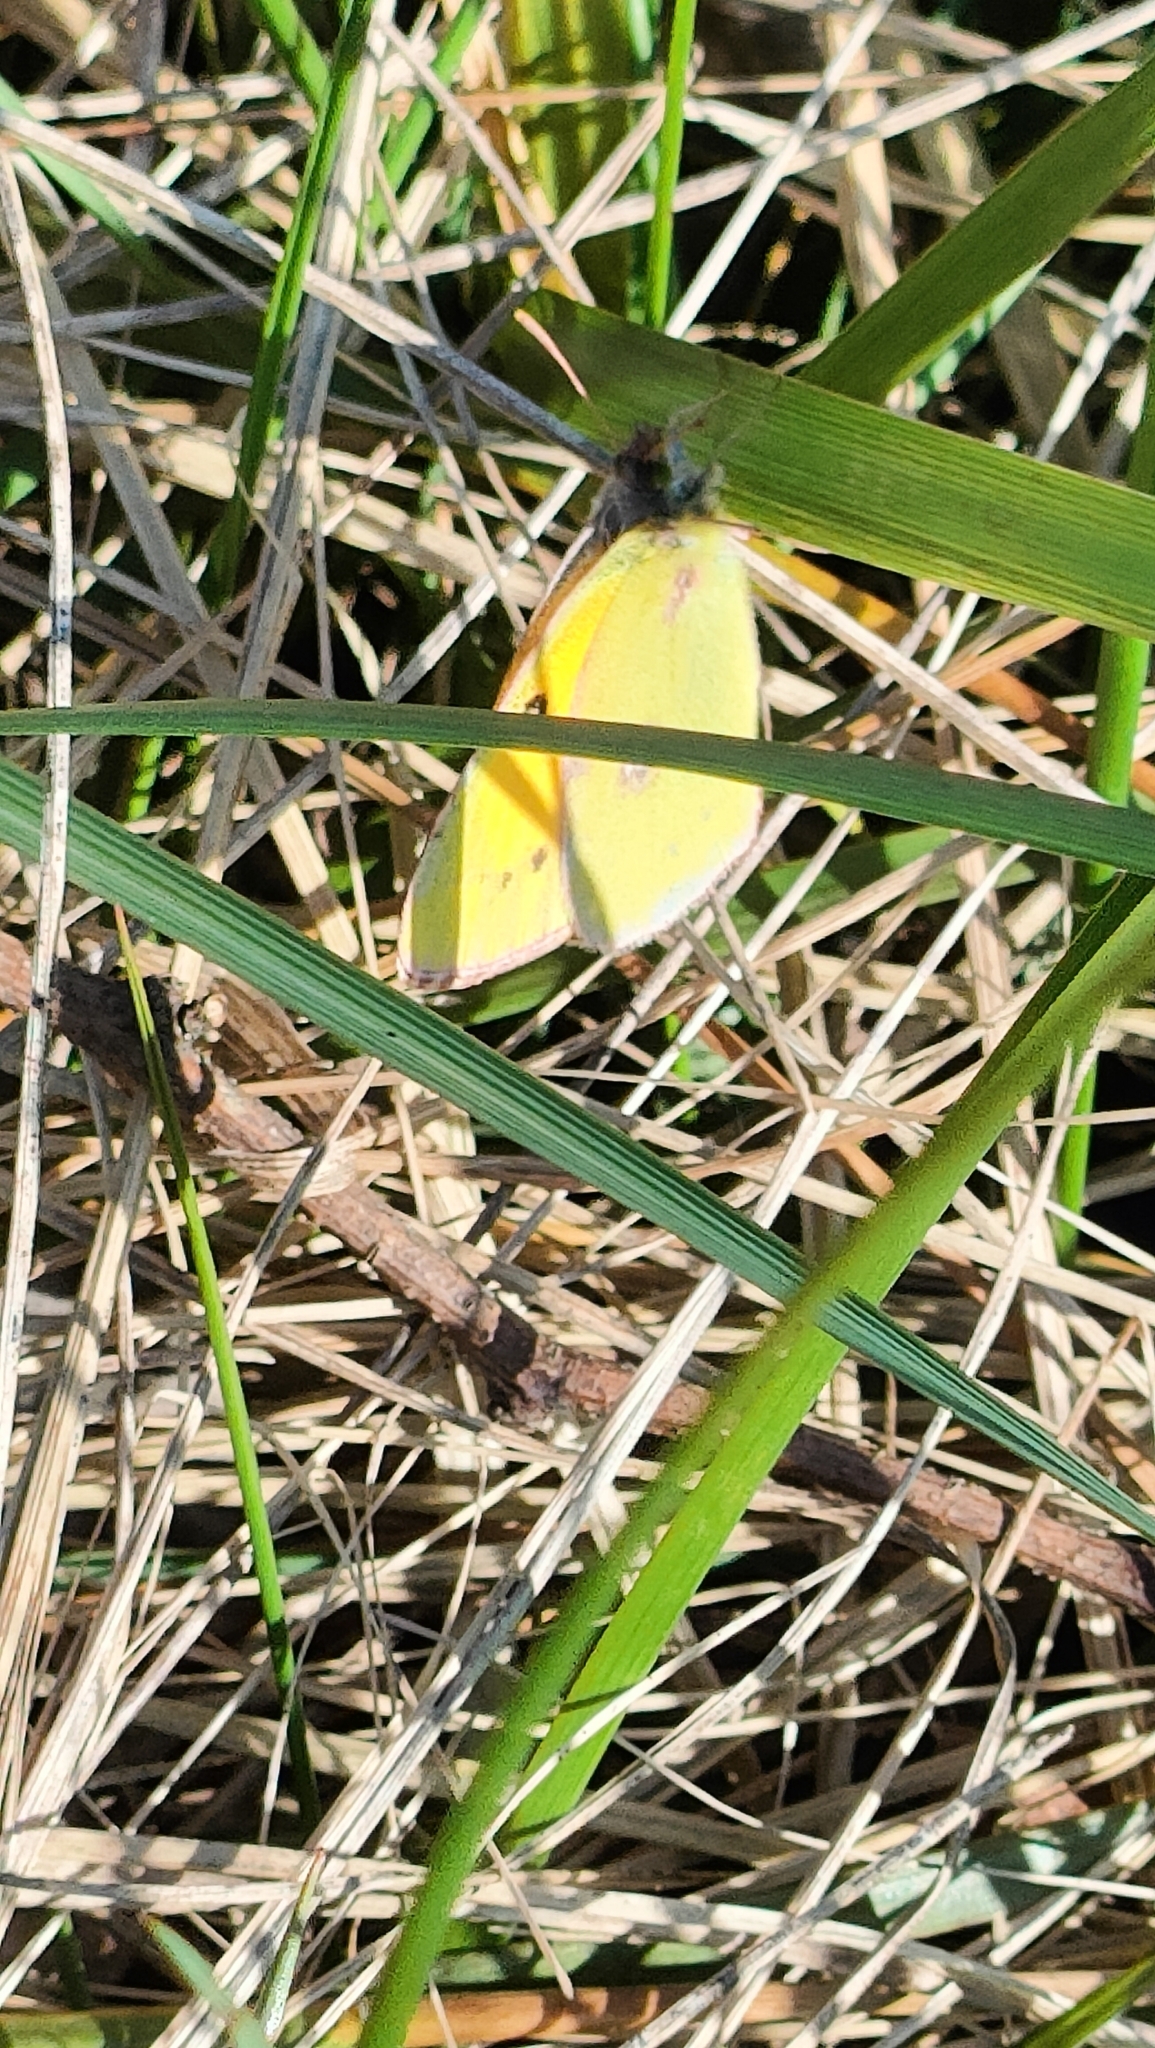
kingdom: Animalia
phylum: Arthropoda
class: Insecta
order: Lepidoptera
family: Pieridae
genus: Colias
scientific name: Colias croceus
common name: Clouded yellow
